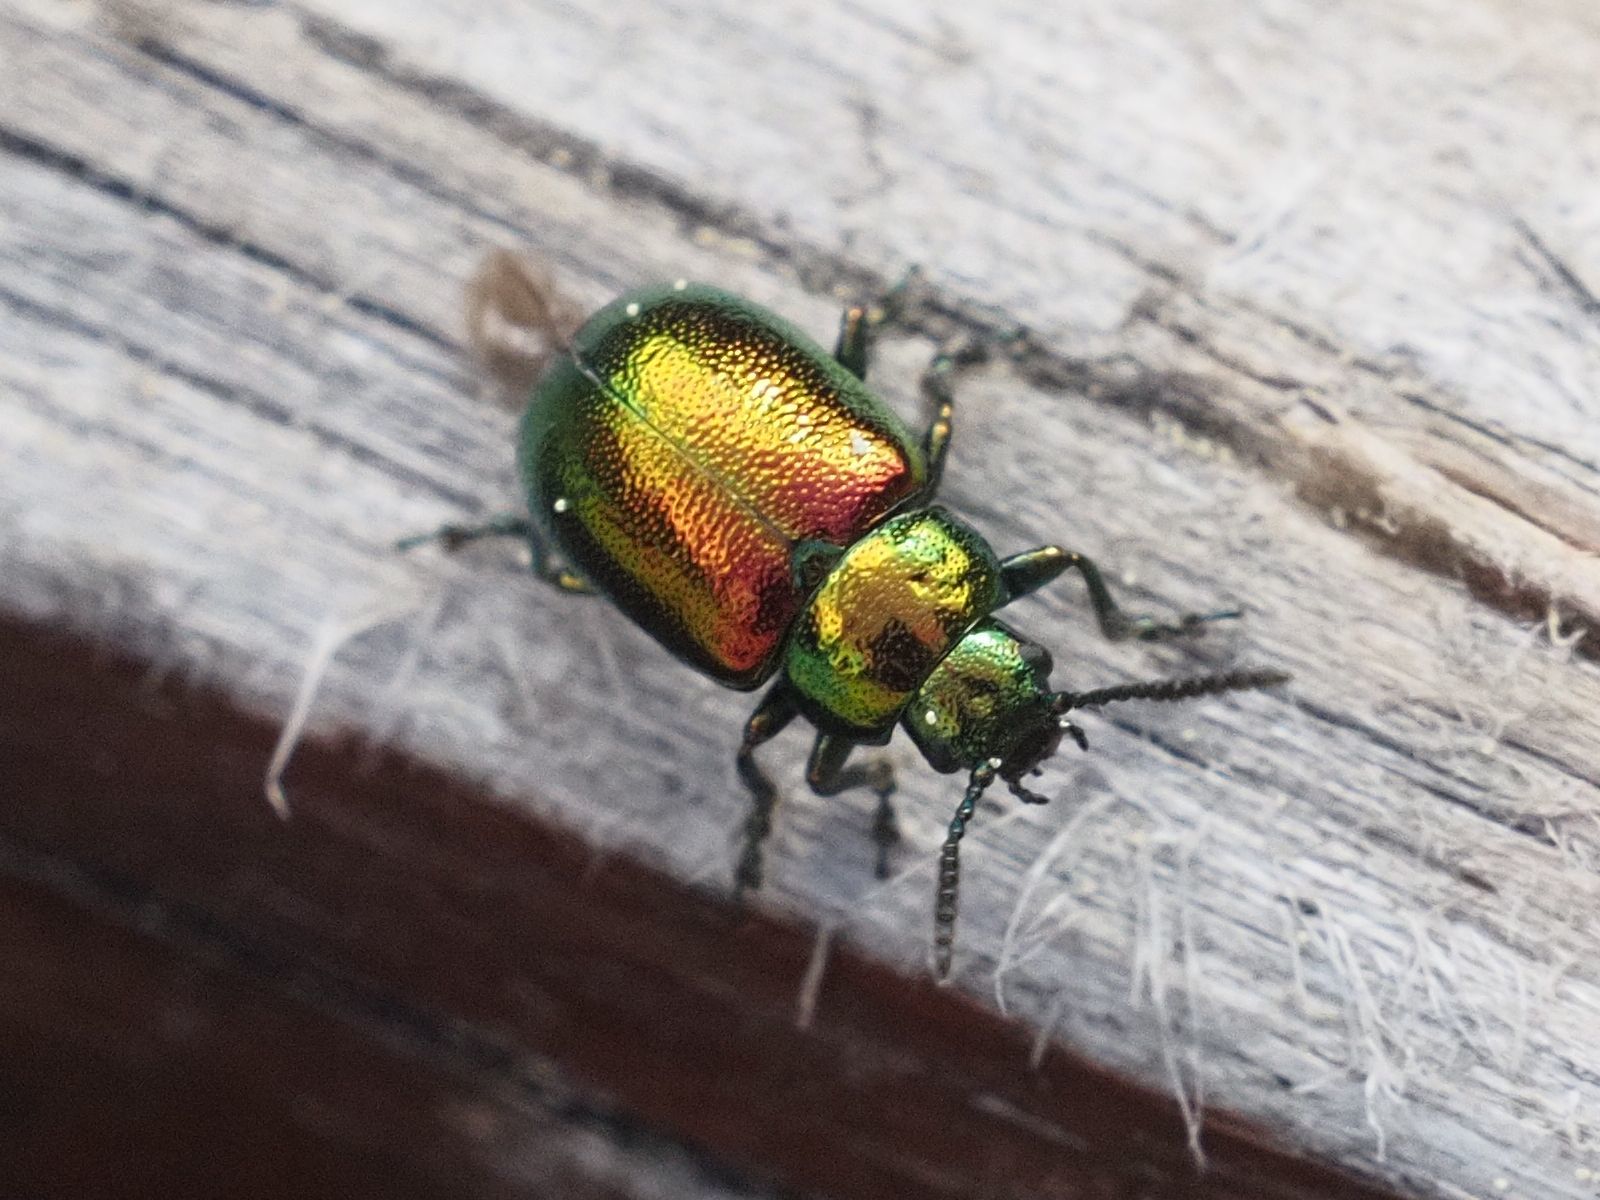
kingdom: Animalia
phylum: Arthropoda
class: Insecta
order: Coleoptera
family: Chrysomelidae
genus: Gastrophysa
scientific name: Gastrophysa viridula
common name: Green dock beetle
